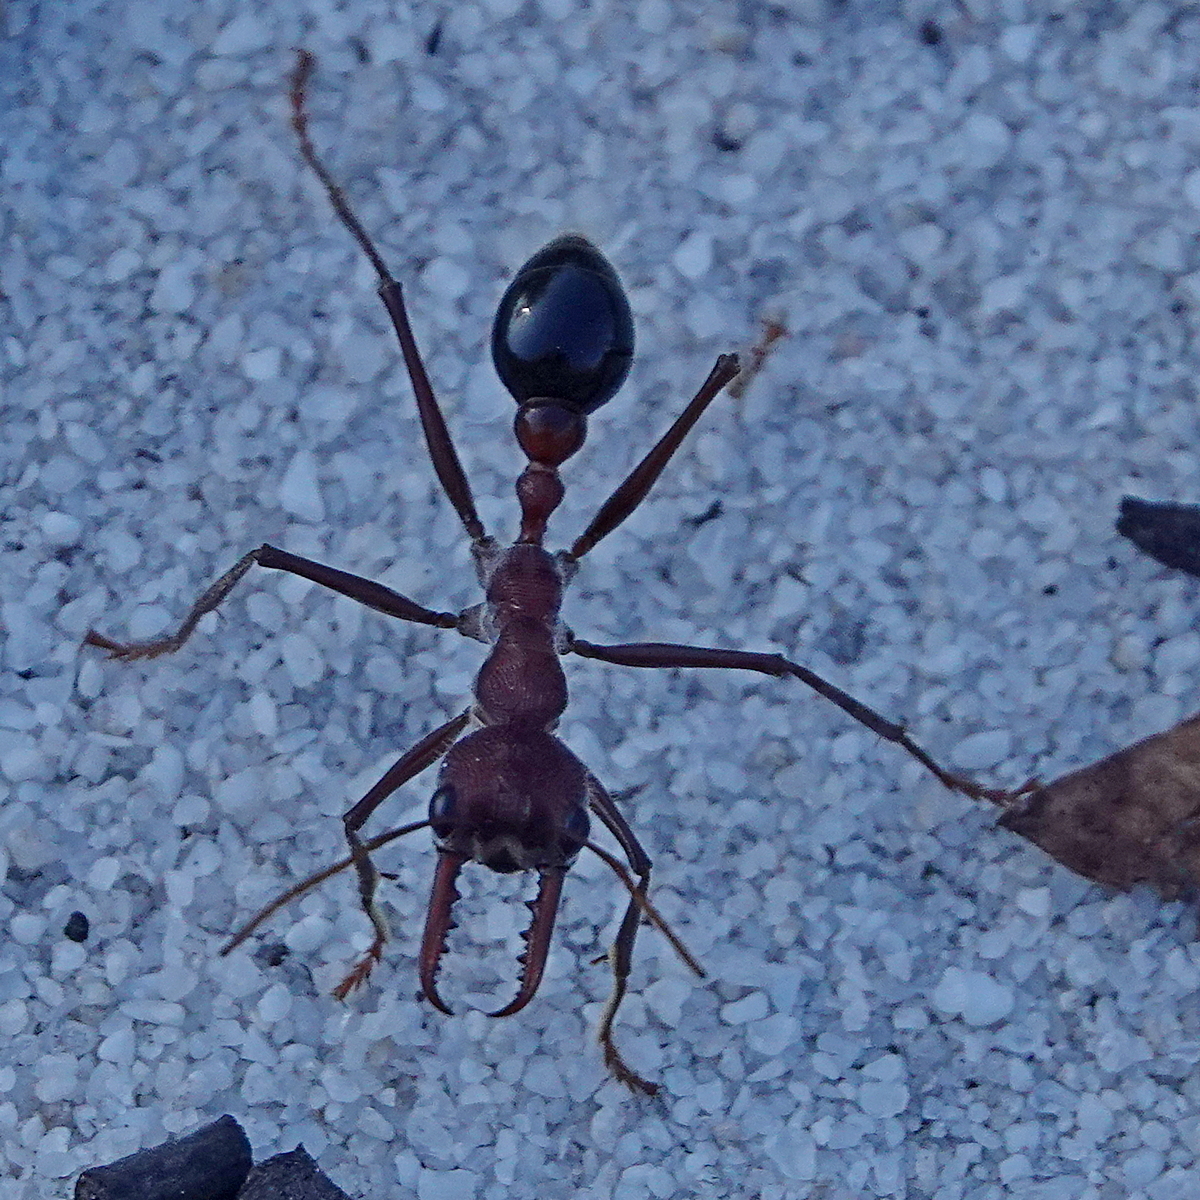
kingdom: Animalia
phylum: Arthropoda
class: Insecta
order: Hymenoptera
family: Formicidae
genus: Myrmecia
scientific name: Myrmecia simillima
